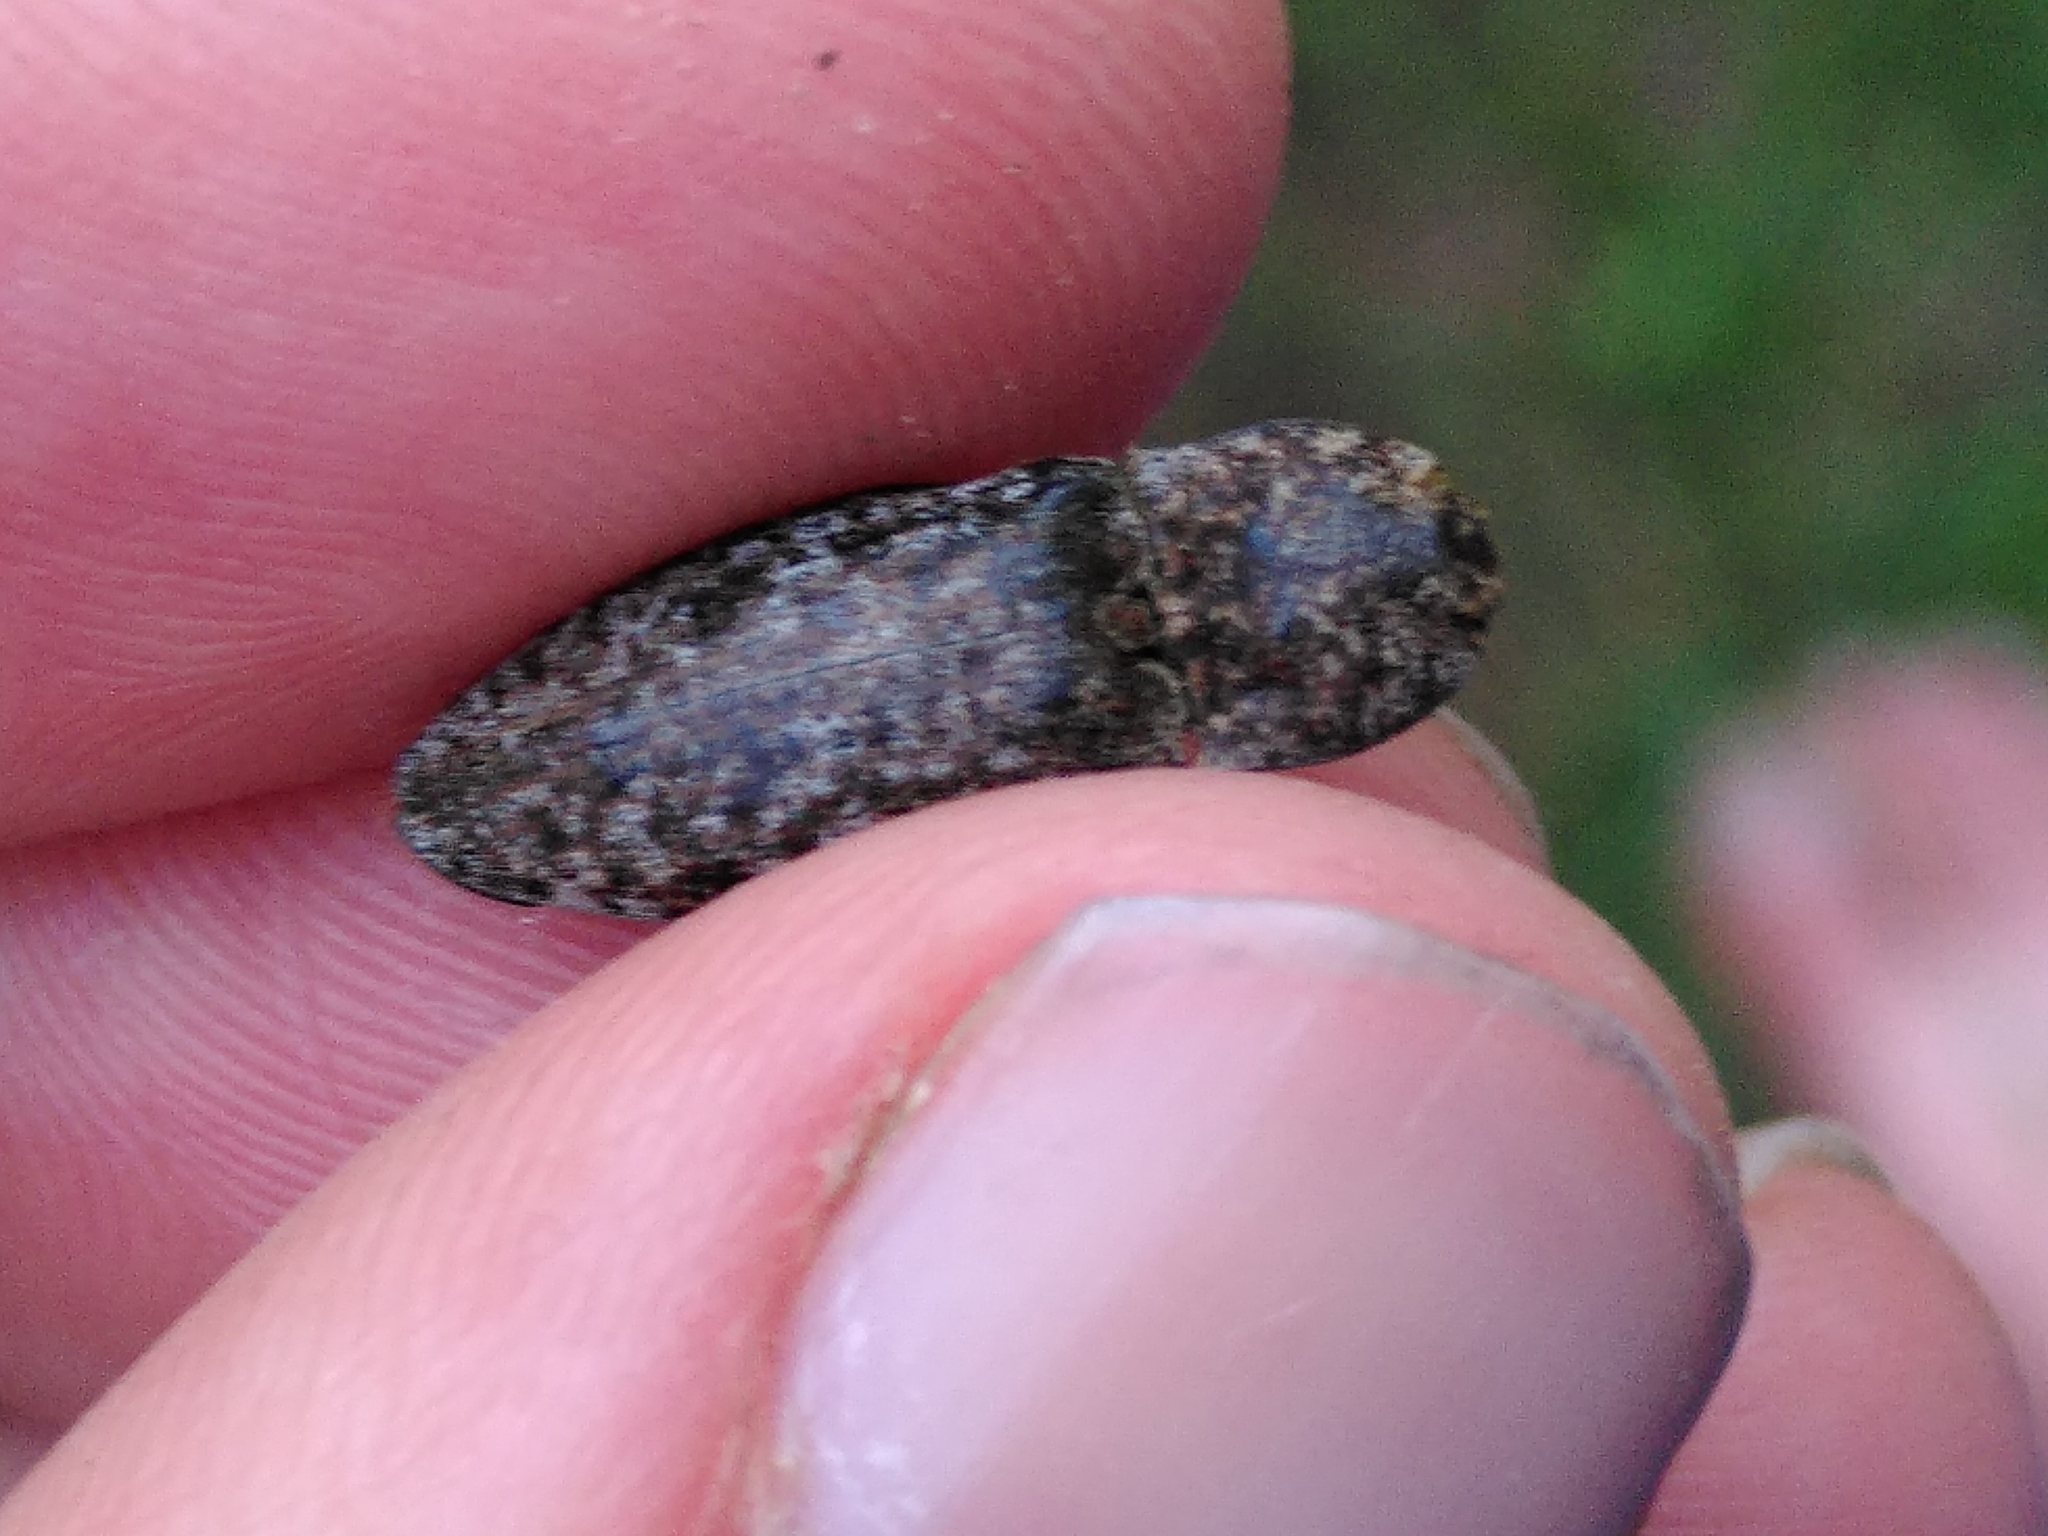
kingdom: Animalia
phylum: Arthropoda
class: Insecta
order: Coleoptera
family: Elateridae
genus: Agrypnus
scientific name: Agrypnus murinus
